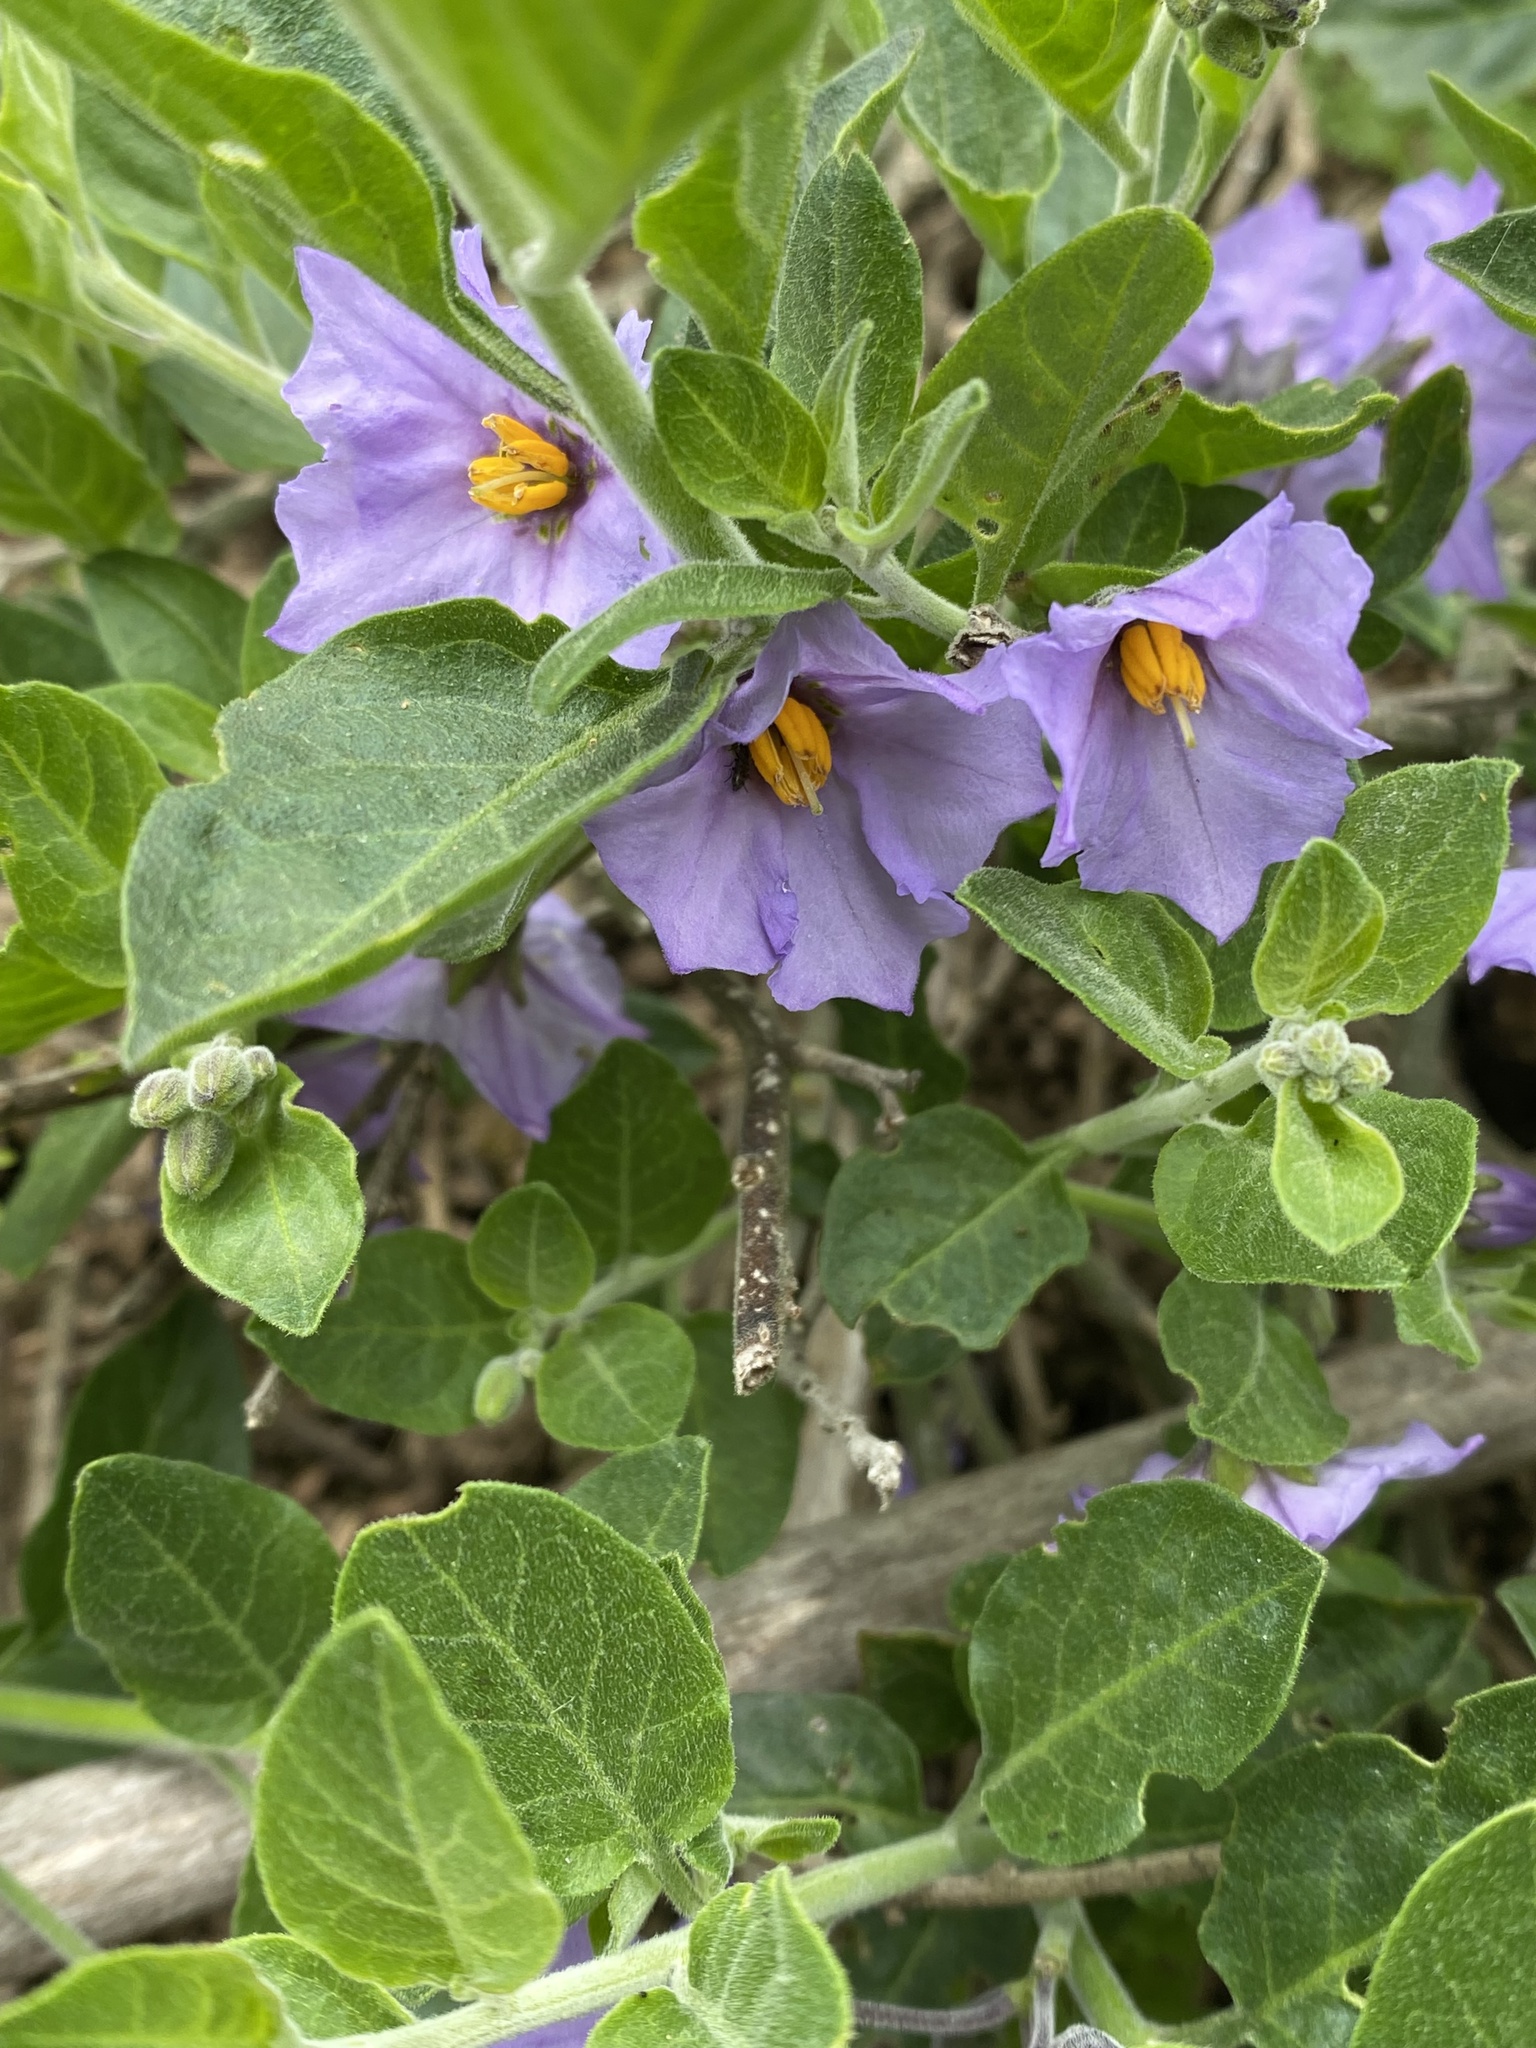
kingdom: Plantae
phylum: Tracheophyta
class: Magnoliopsida
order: Solanales
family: Solanaceae
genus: Solanum
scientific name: Solanum umbelliferum
